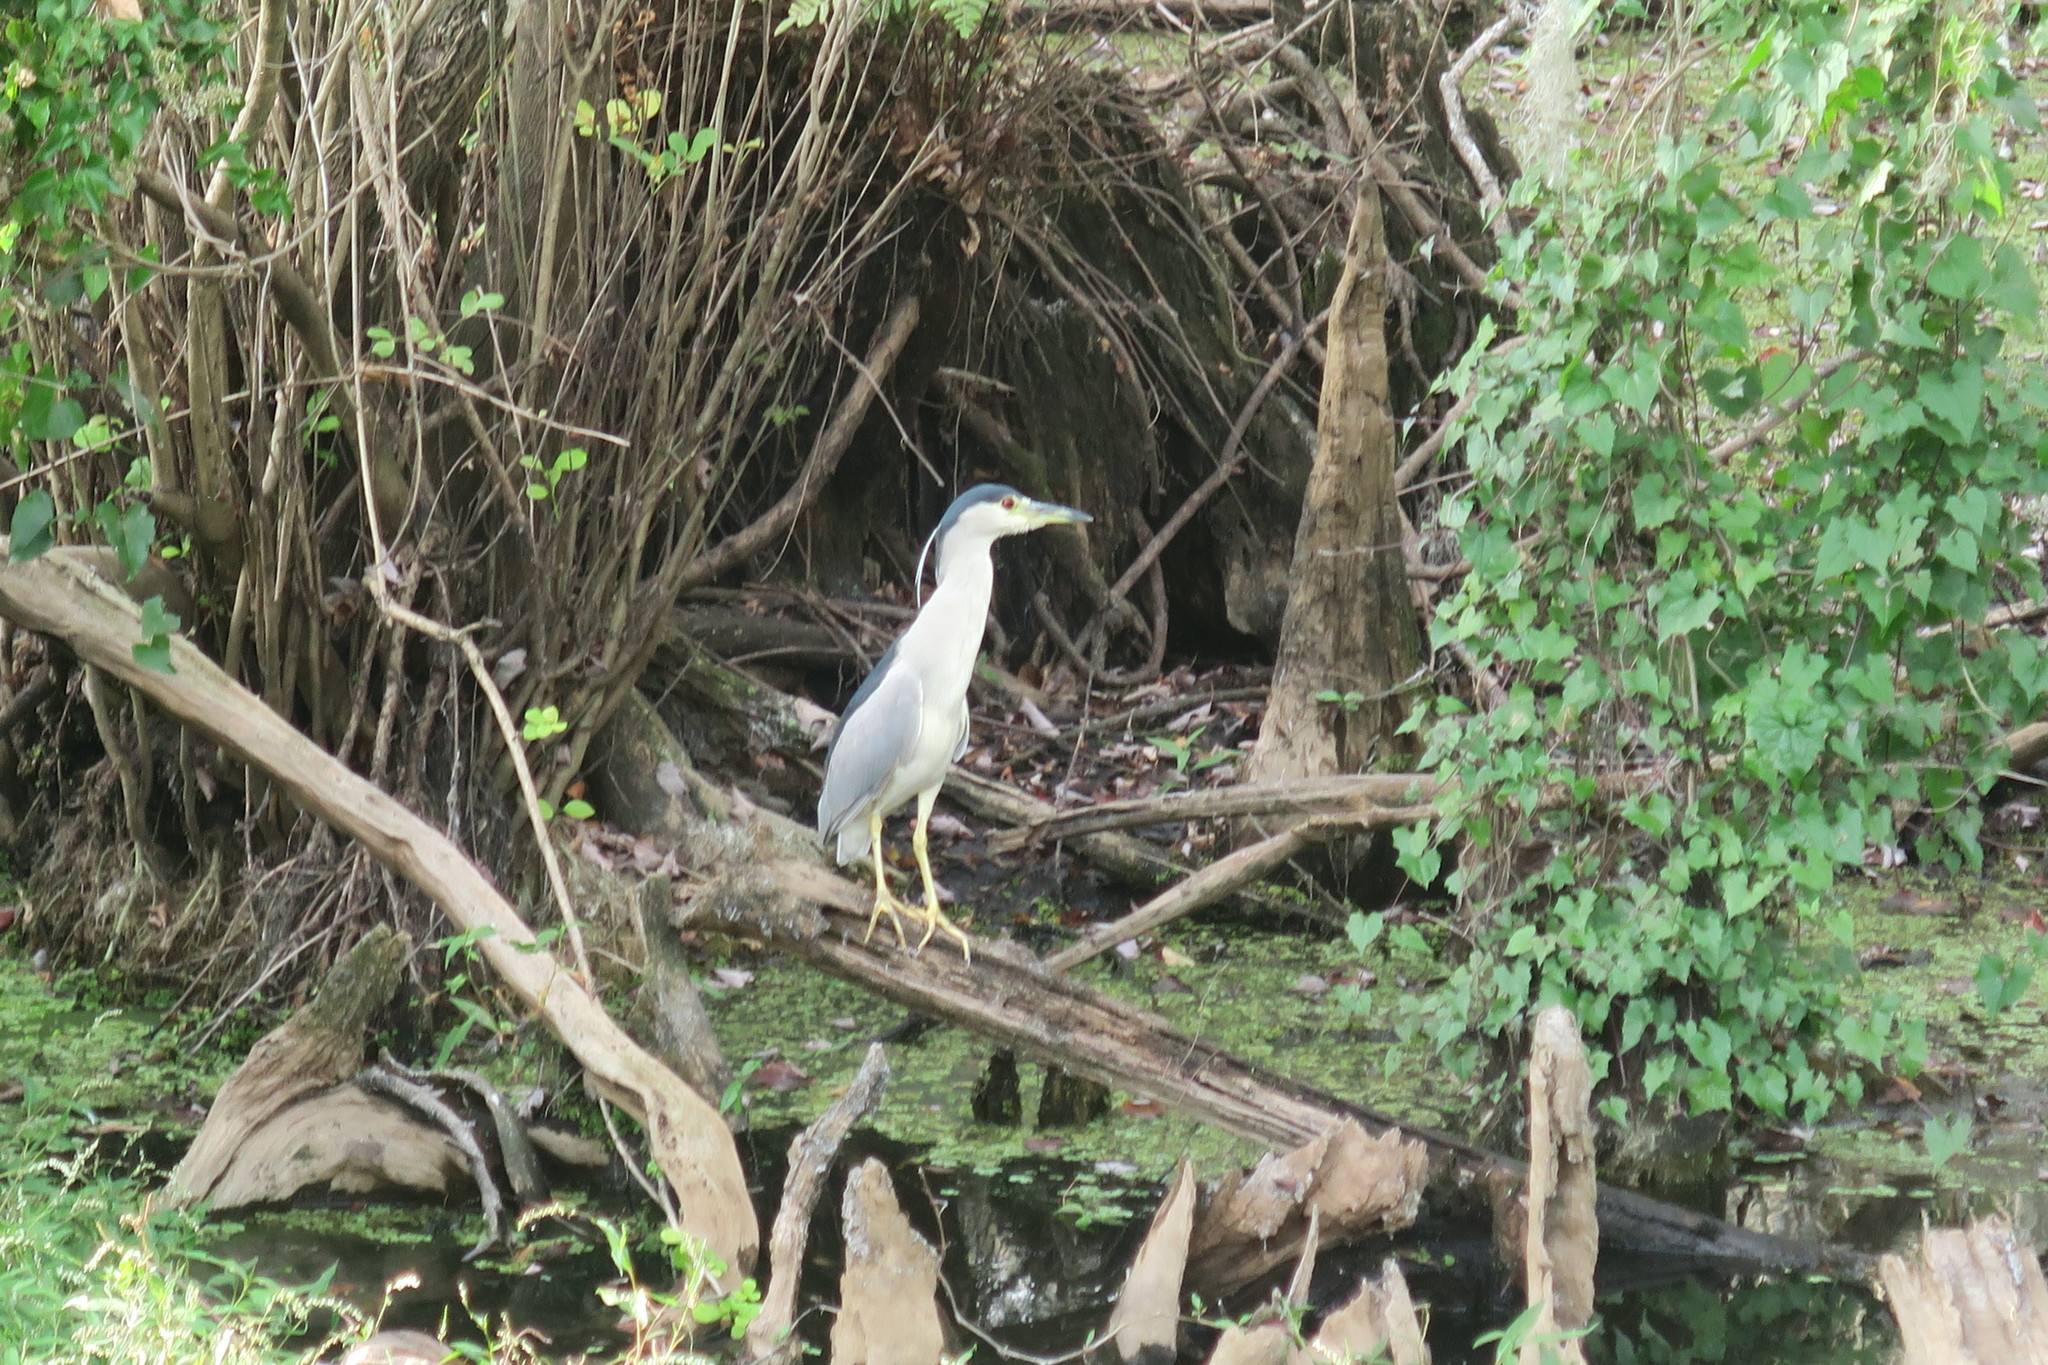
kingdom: Animalia
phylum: Chordata
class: Aves
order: Pelecaniformes
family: Ardeidae
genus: Nycticorax
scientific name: Nycticorax nycticorax
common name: Black-crowned night heron
